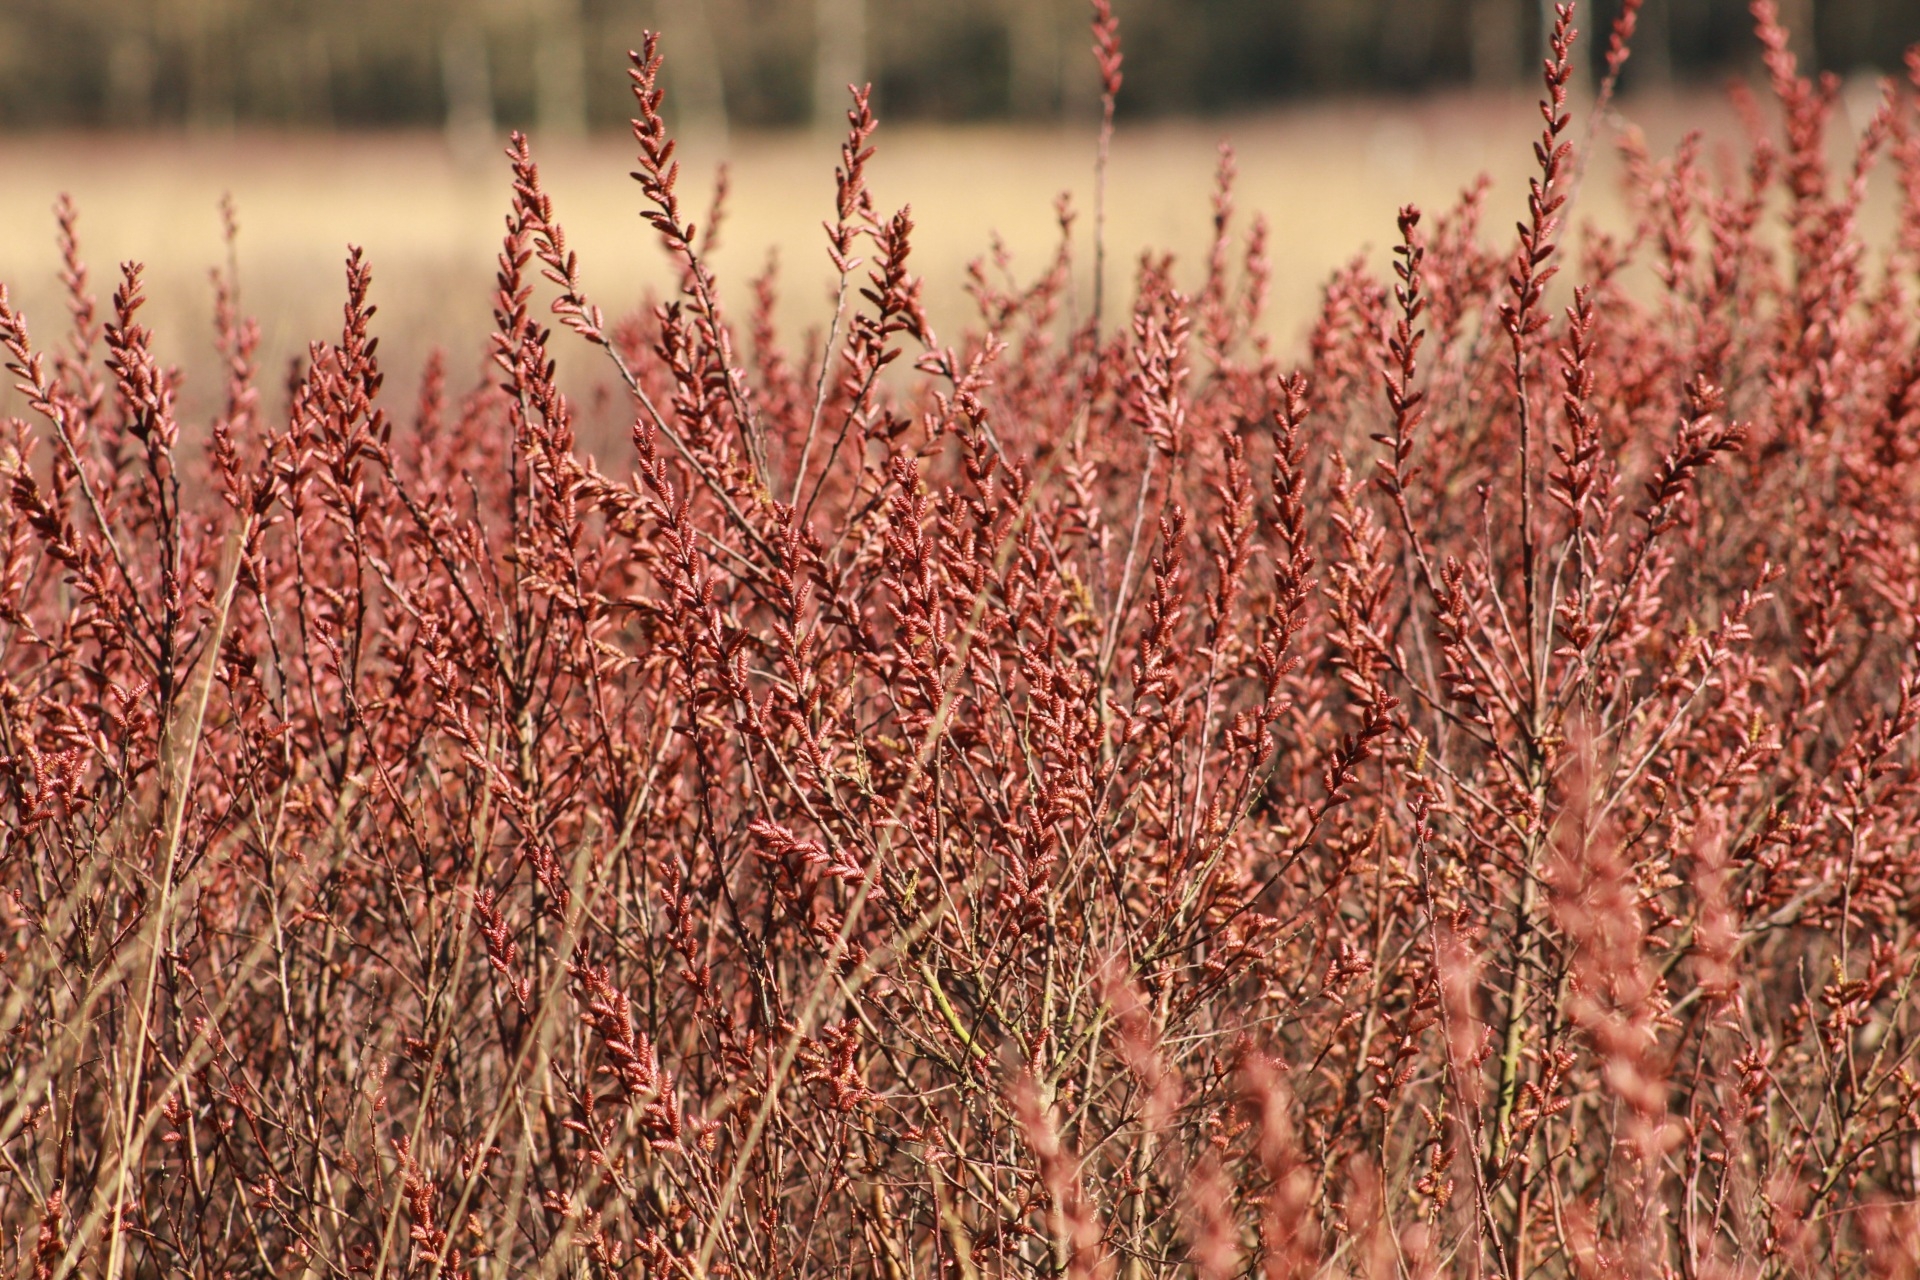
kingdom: Plantae
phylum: Tracheophyta
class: Magnoliopsida
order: Fagales
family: Myricaceae
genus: Myrica
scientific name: Myrica gale
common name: Sweet gale
